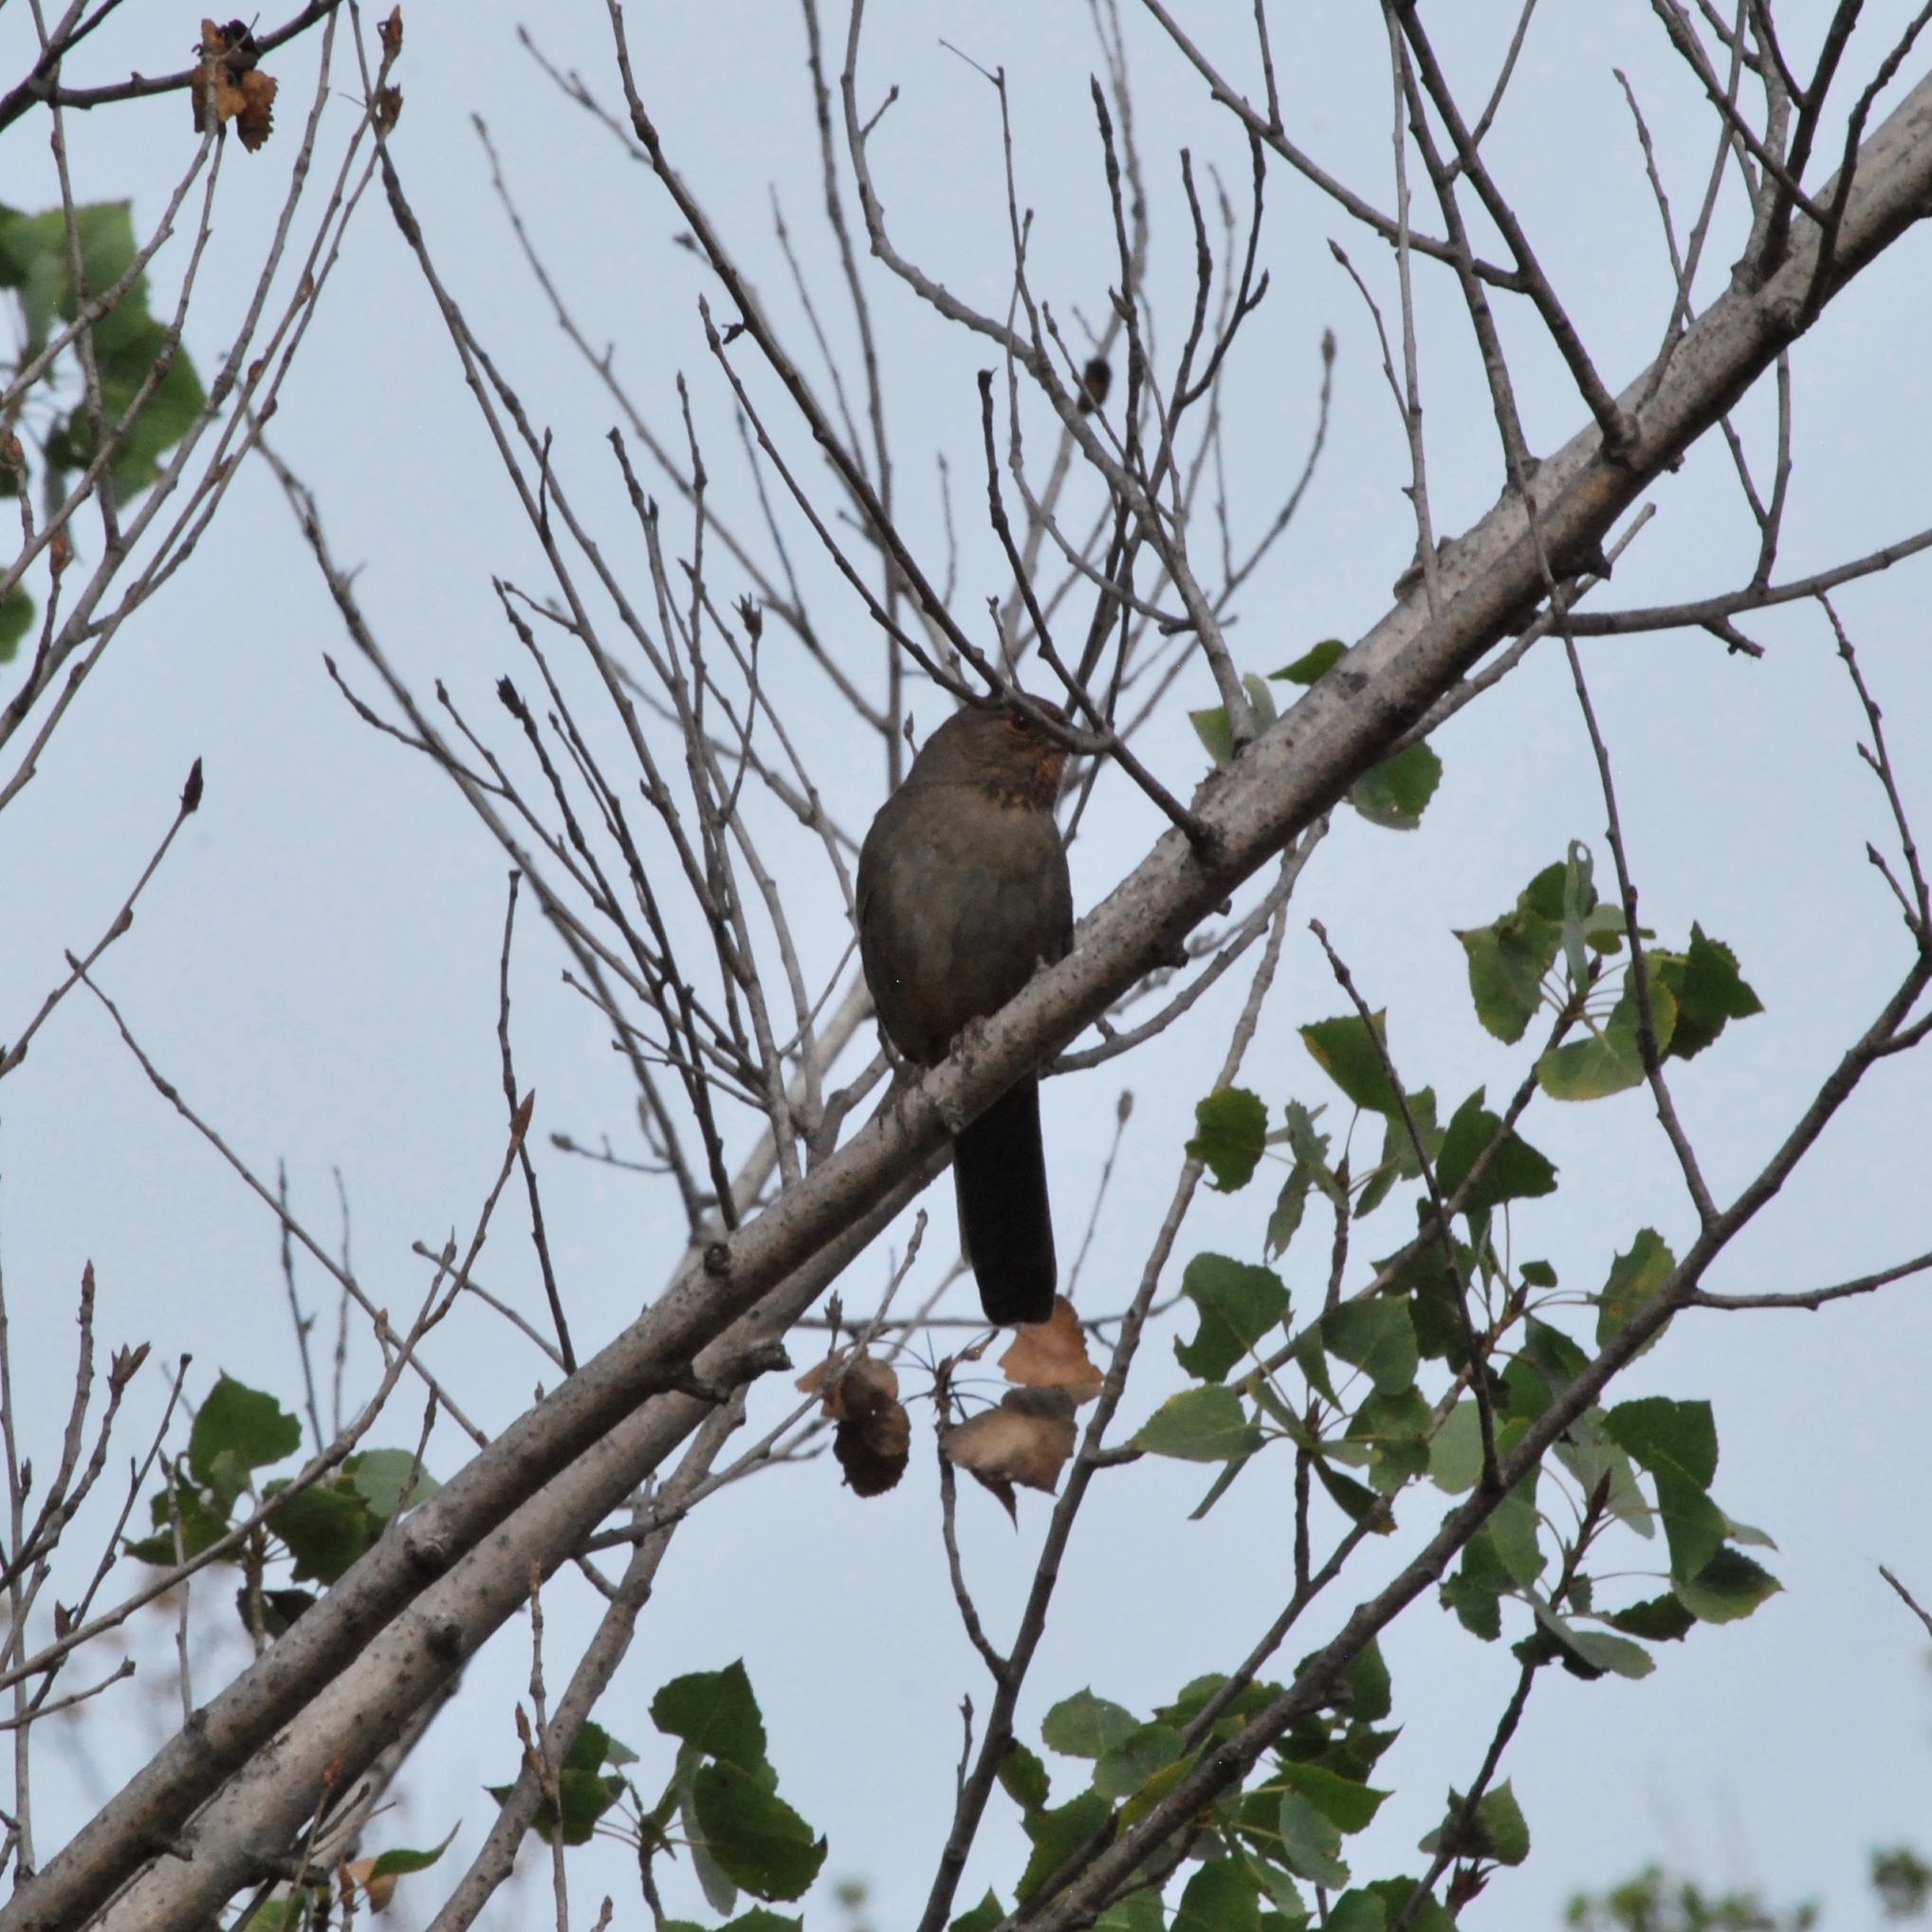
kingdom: Animalia
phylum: Chordata
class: Aves
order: Passeriformes
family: Passerellidae
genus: Melozone
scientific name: Melozone crissalis
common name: California towhee
